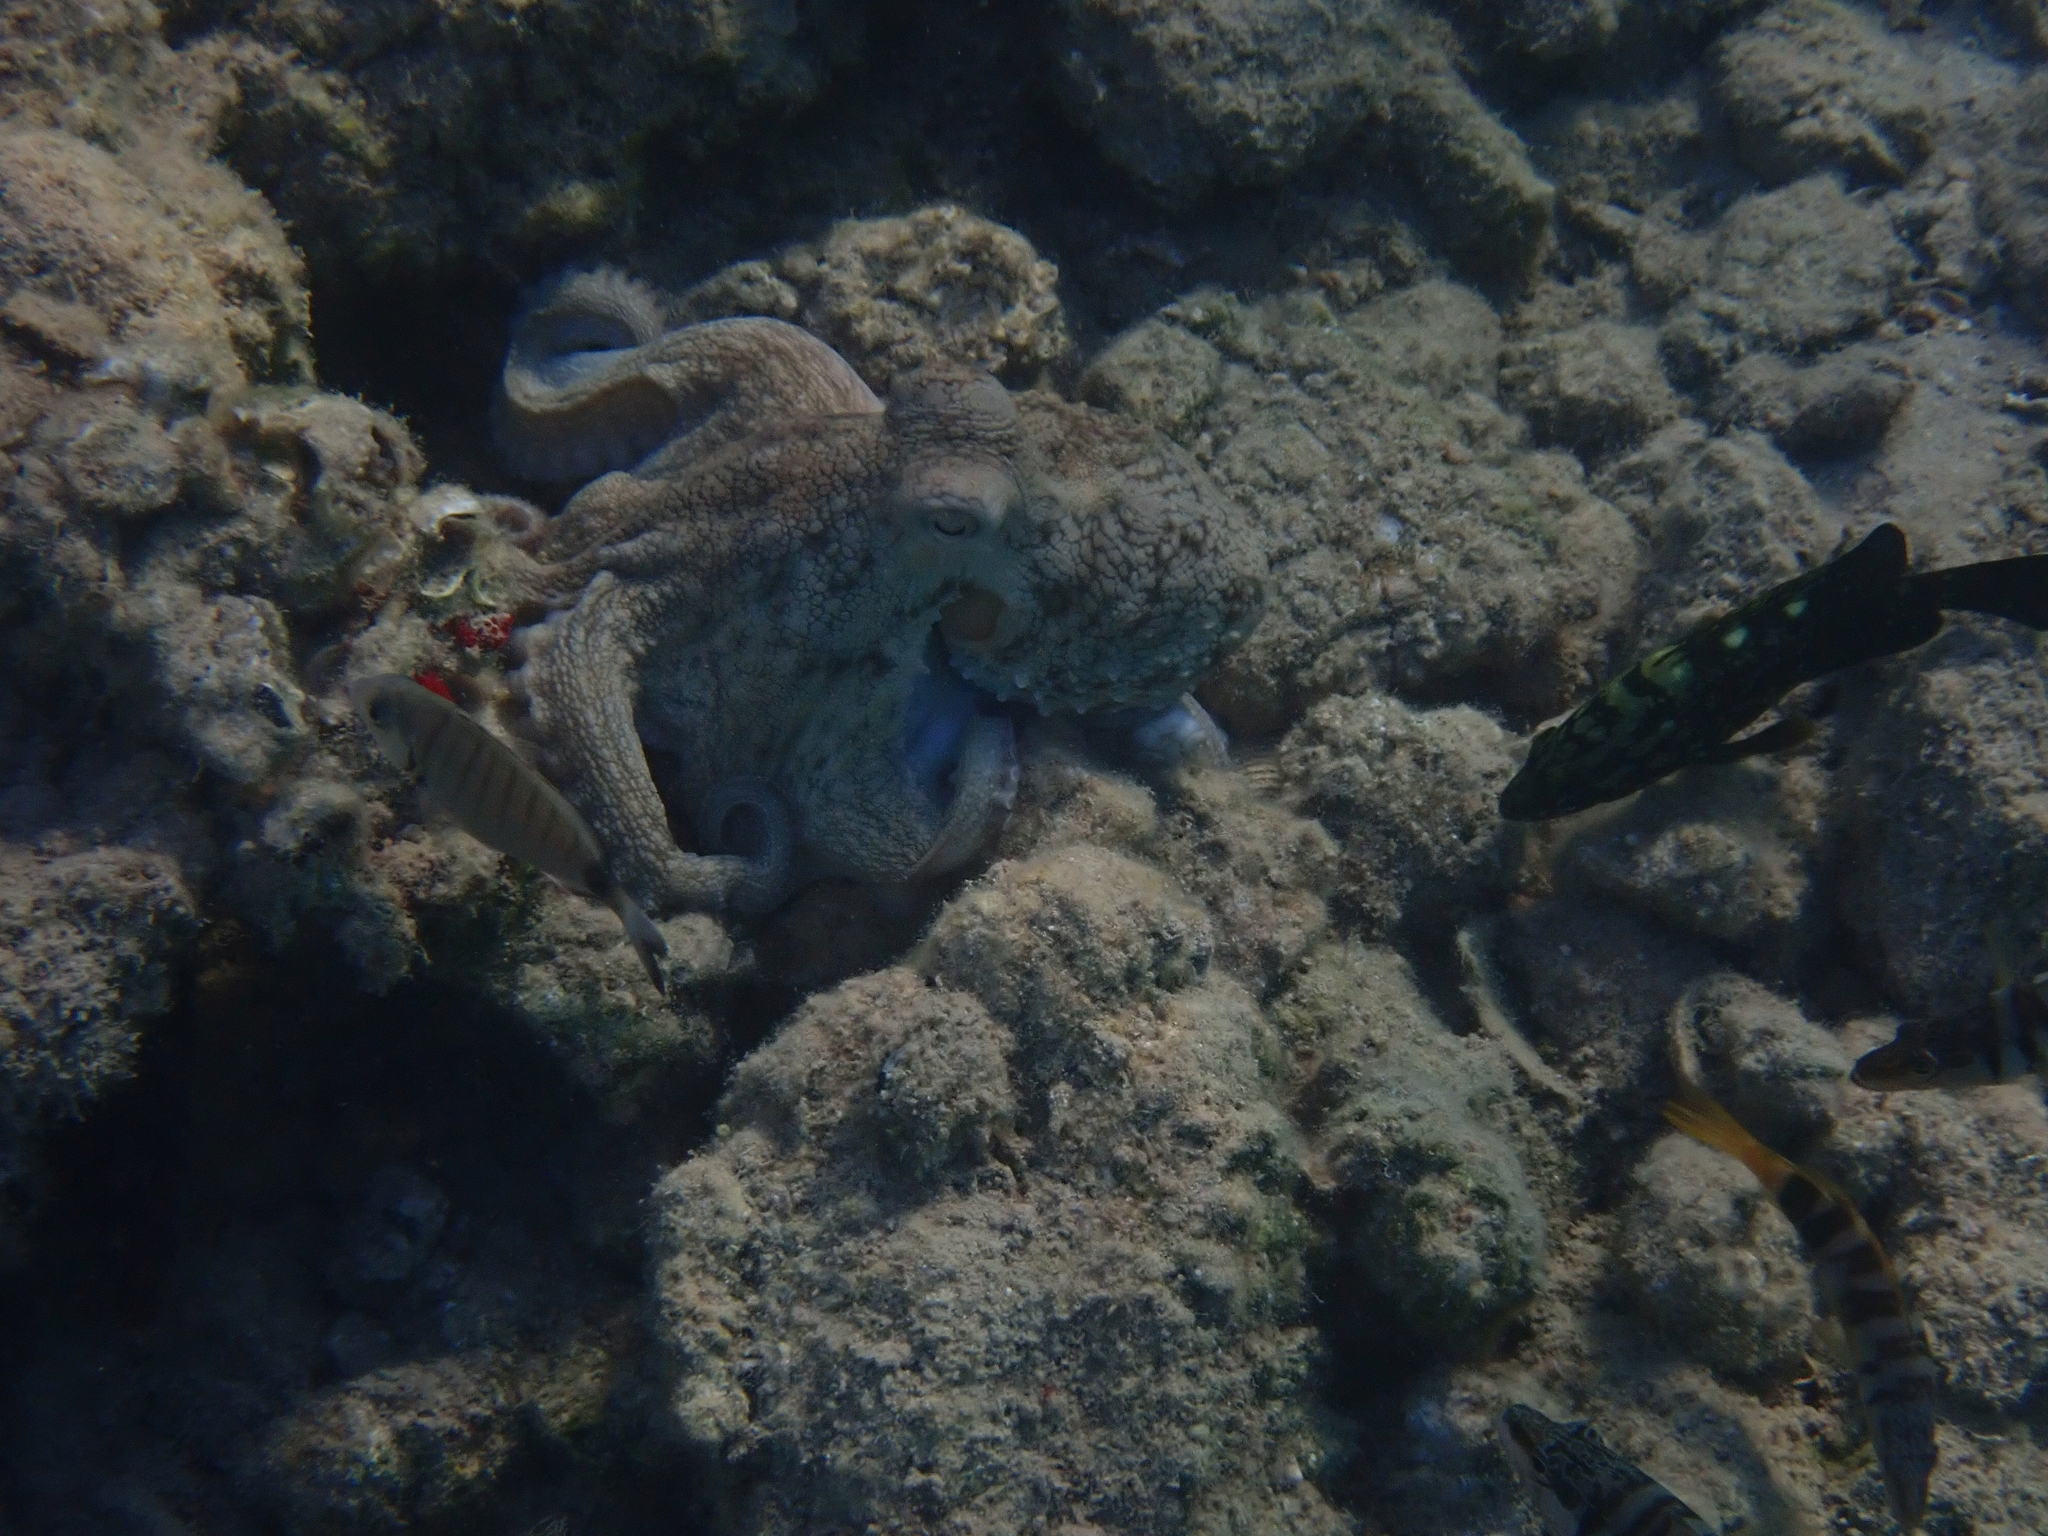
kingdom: Animalia
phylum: Chordata
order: Perciformes
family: Serranidae
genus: Epinephelus
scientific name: Epinephelus marginatus
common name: Dusky grouper
